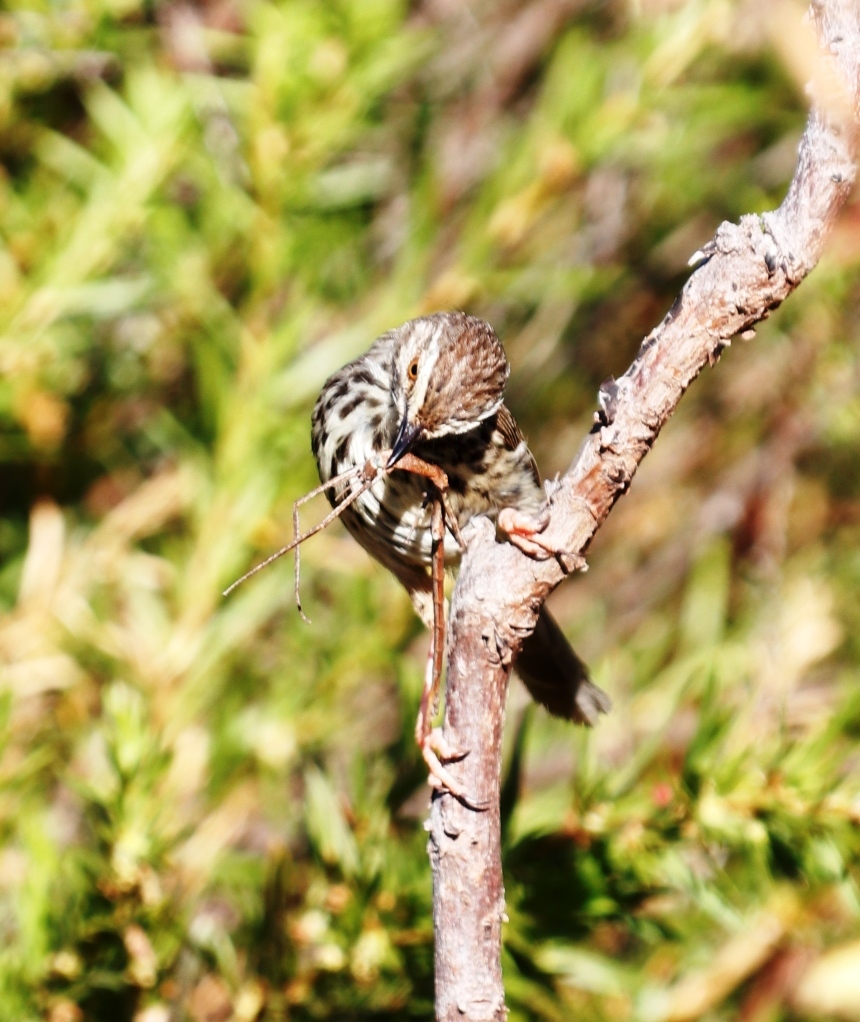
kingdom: Animalia
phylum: Chordata
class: Aves
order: Passeriformes
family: Cisticolidae
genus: Prinia
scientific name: Prinia maculosa
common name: Karoo prinia
